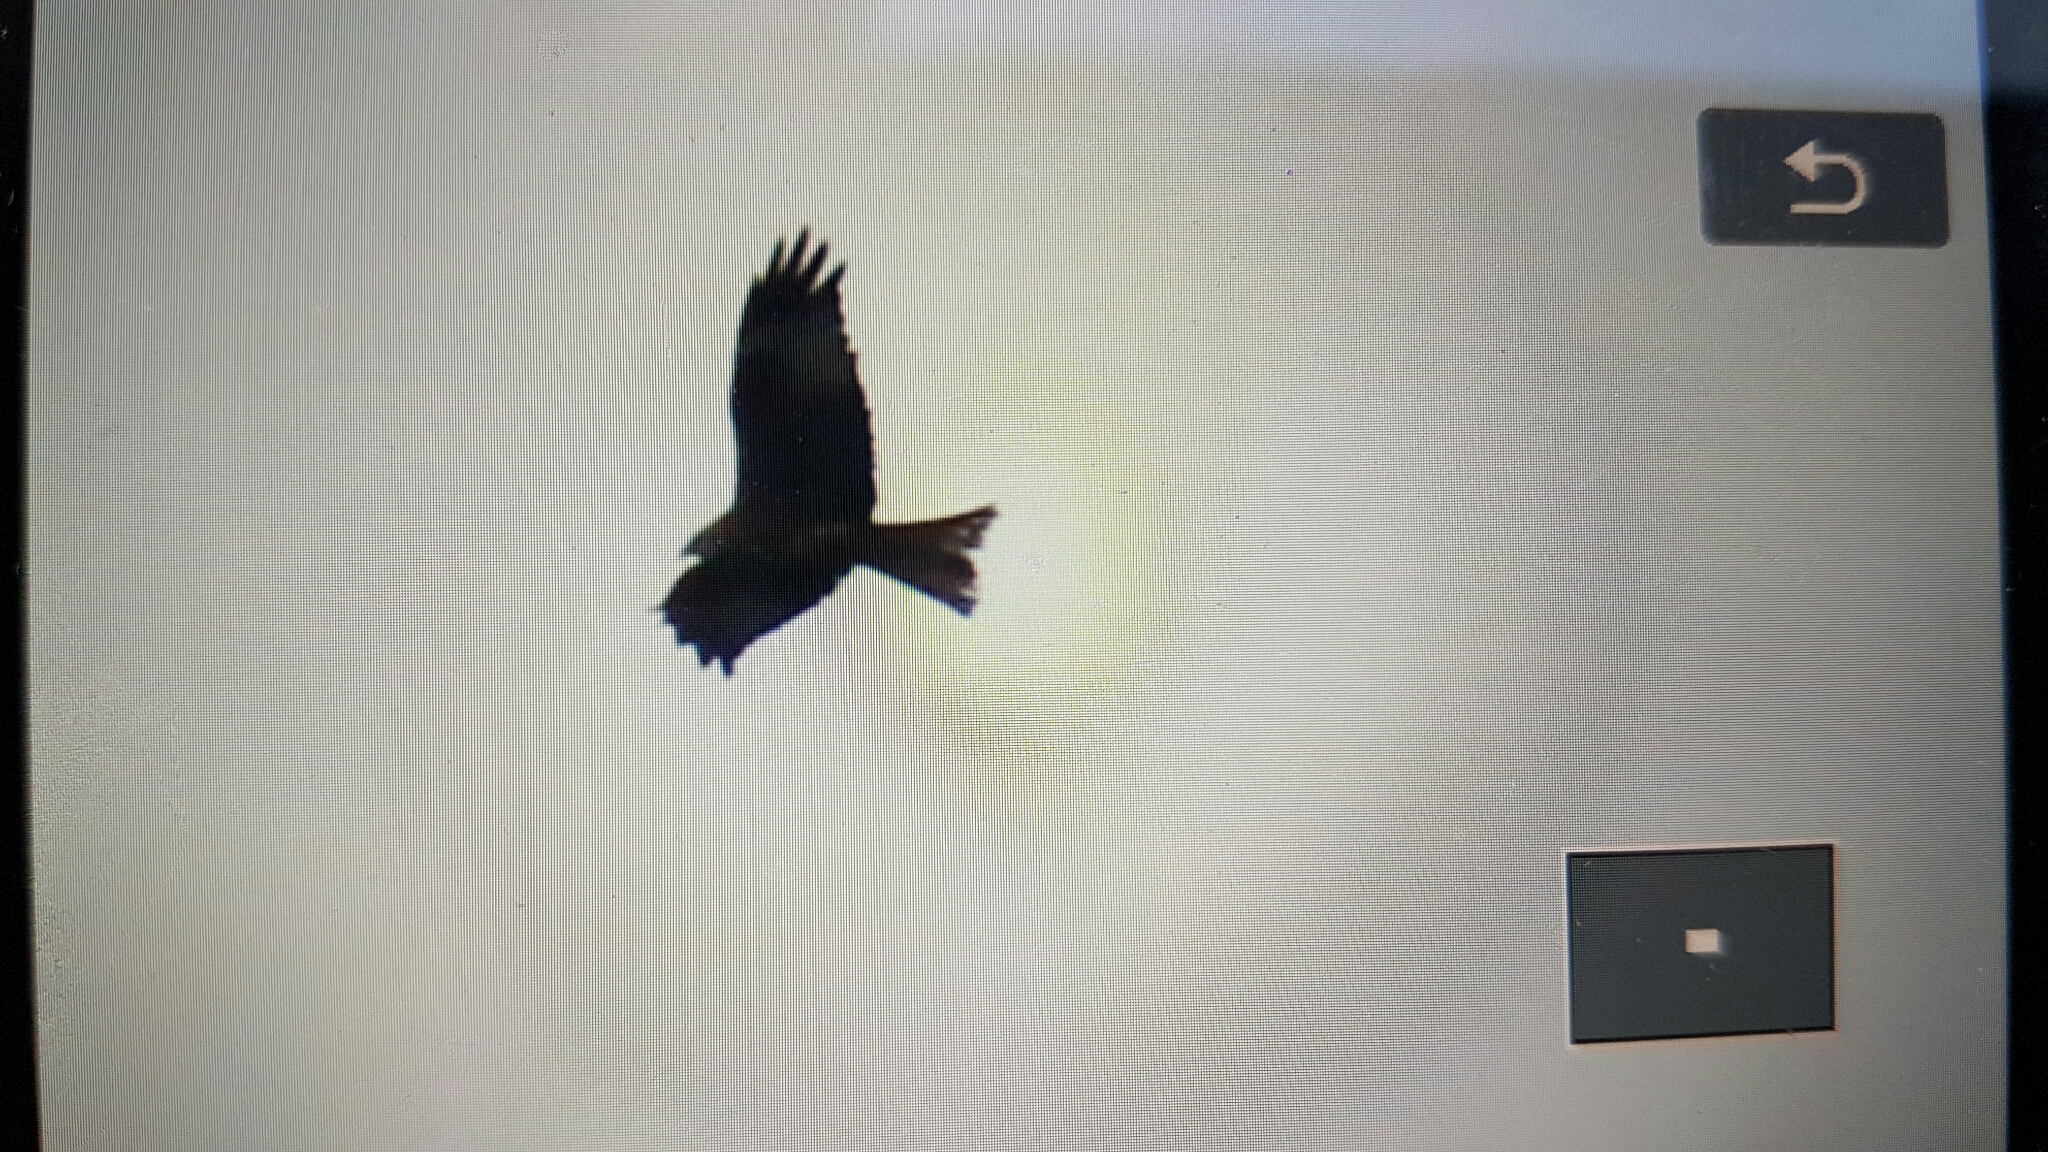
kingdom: Animalia
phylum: Chordata
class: Aves
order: Accipitriformes
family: Accipitridae
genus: Milvus
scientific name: Milvus milvus
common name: Red kite
